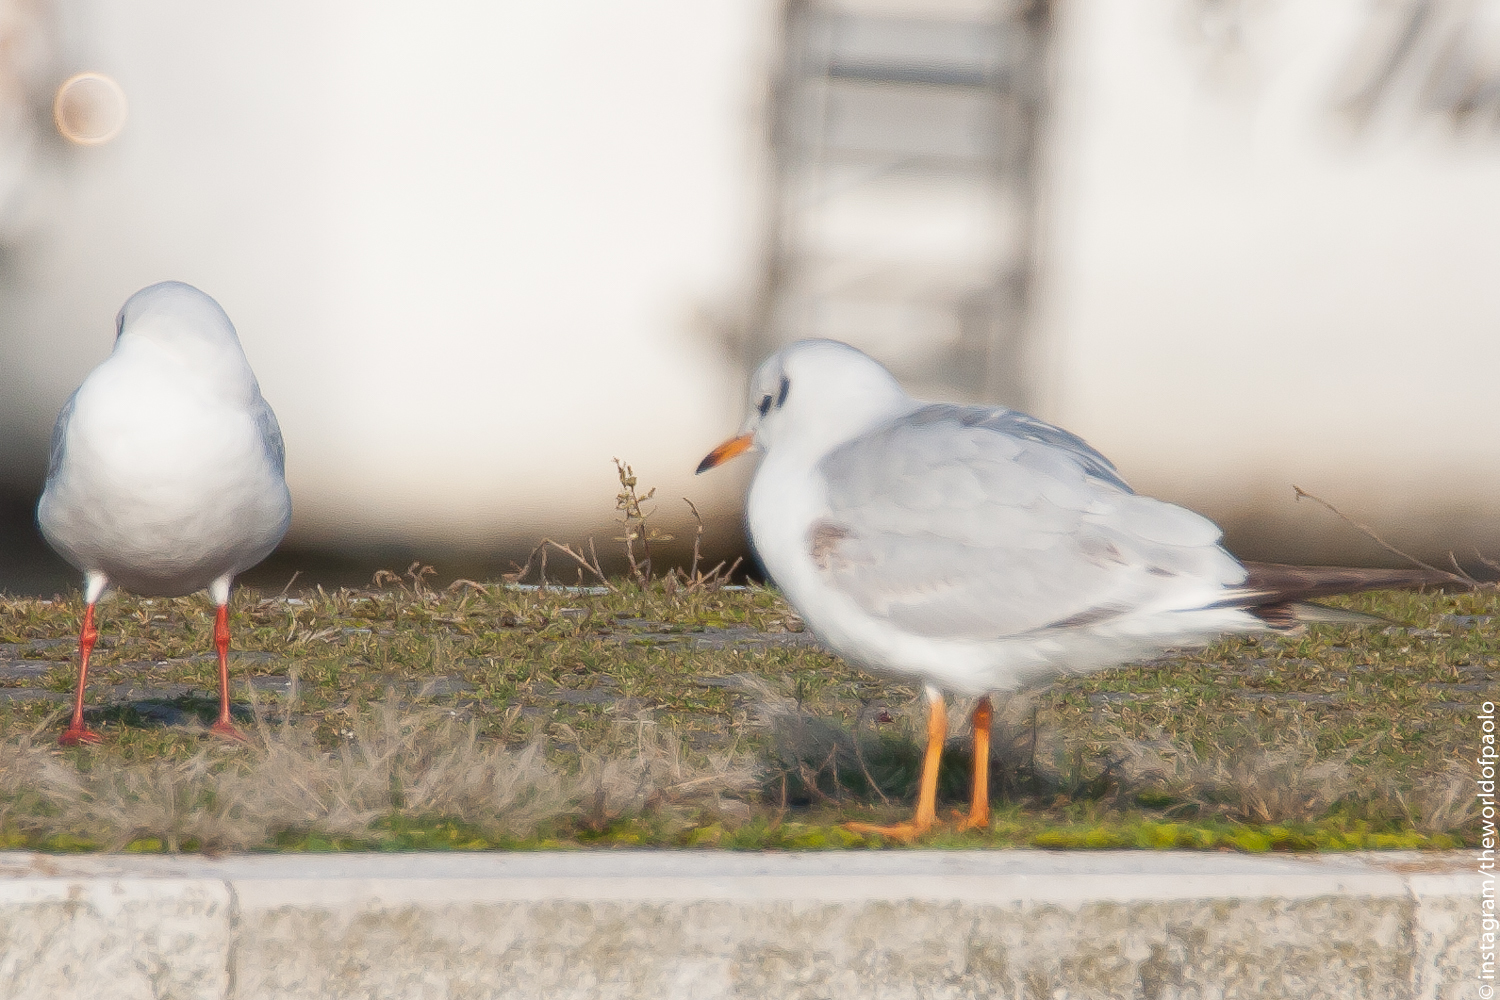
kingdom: Animalia
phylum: Chordata
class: Aves
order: Charadriiformes
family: Laridae
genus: Chroicocephalus
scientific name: Chroicocephalus ridibundus
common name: Black-headed gull
